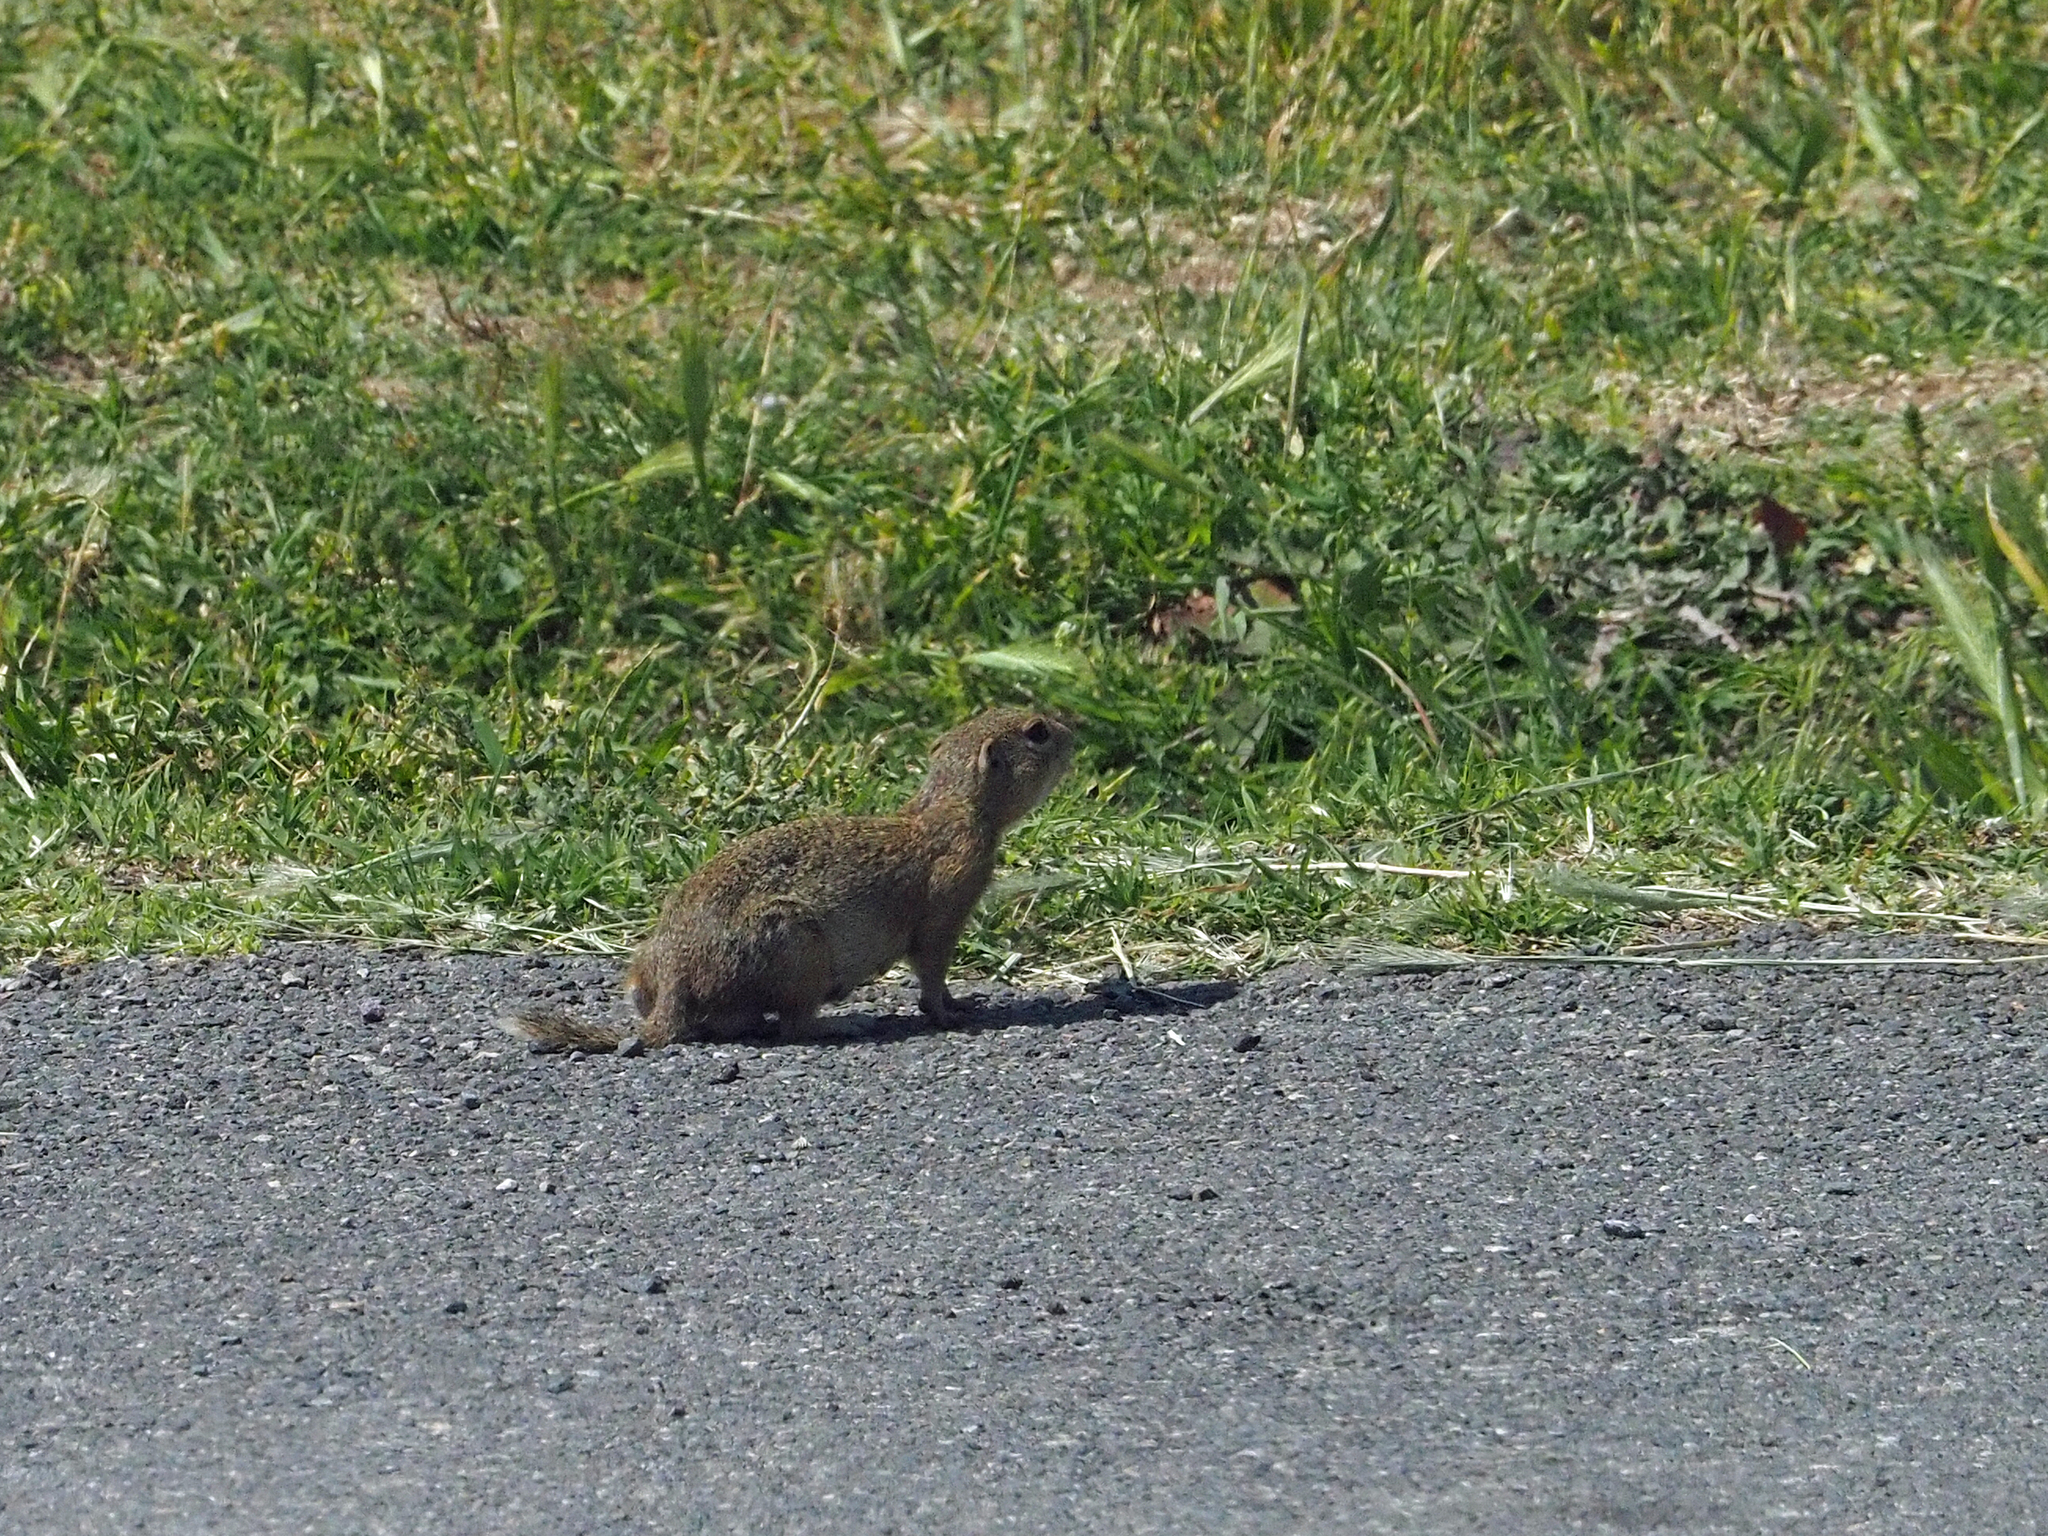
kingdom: Animalia
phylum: Chordata
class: Mammalia
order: Rodentia
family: Sciuridae
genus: Spermophilus
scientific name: Spermophilus citellus
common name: European ground squirrel
